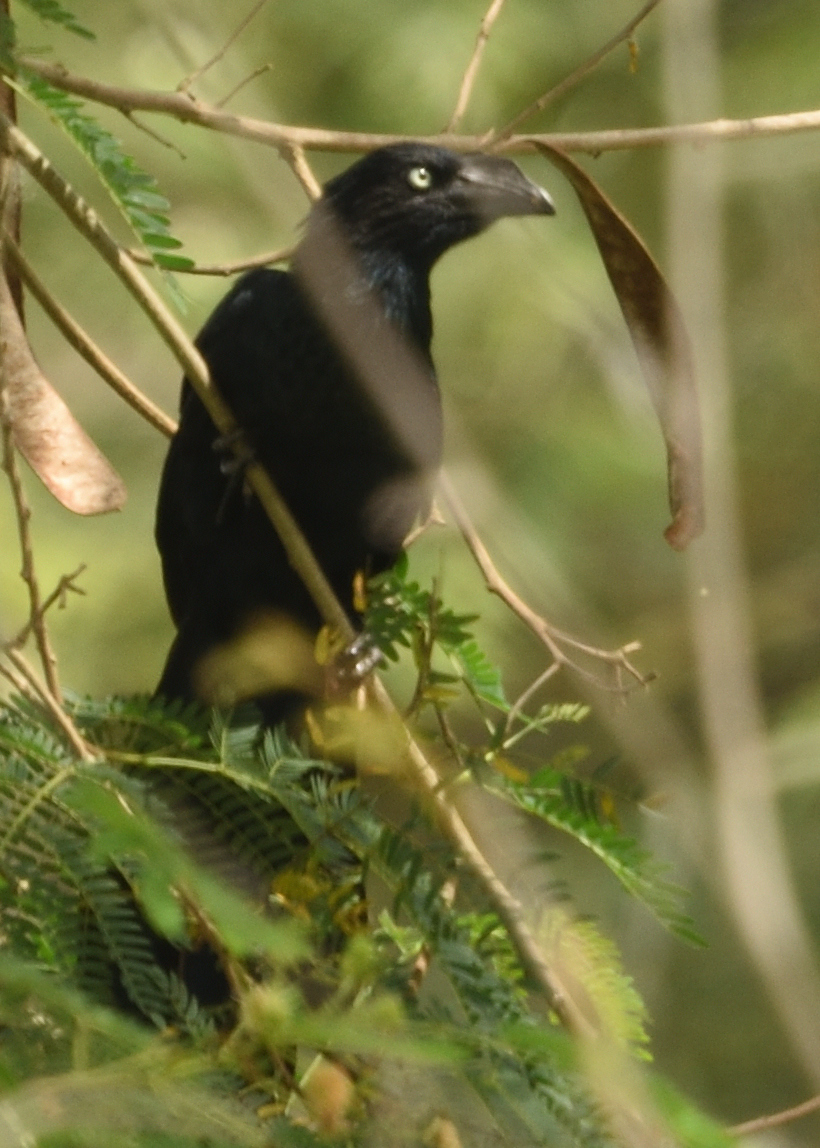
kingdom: Animalia
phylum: Chordata
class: Aves
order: Cuculiformes
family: Cuculidae
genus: Crotophaga
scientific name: Crotophaga major
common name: Greater ani
